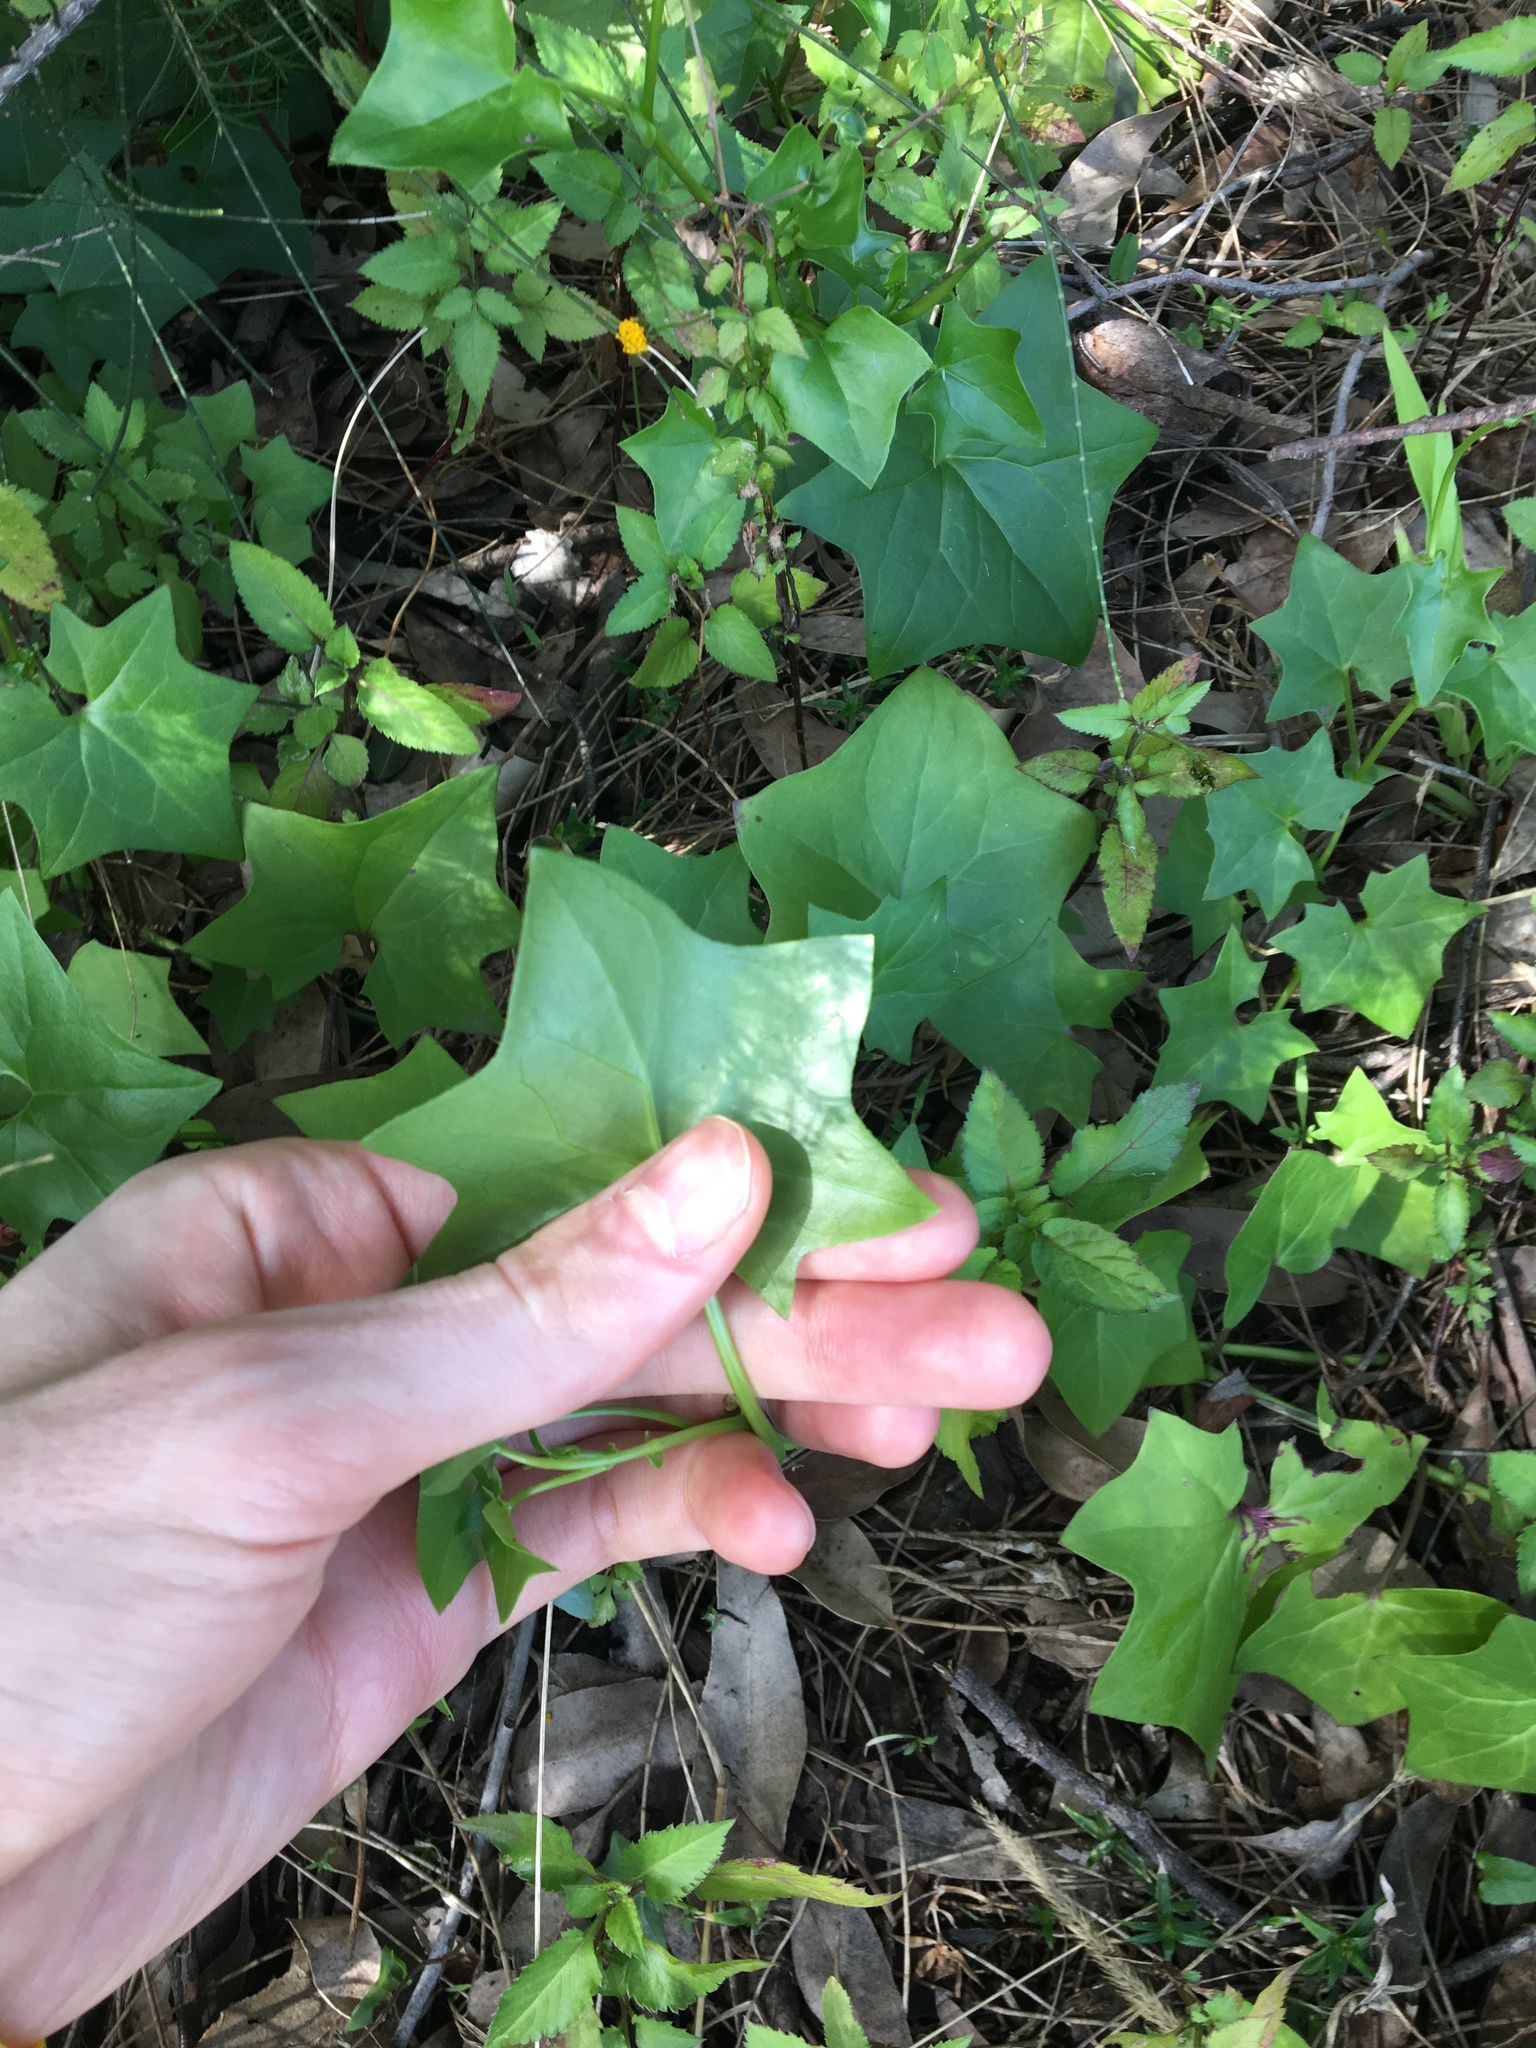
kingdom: Plantae
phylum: Tracheophyta
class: Magnoliopsida
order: Asterales
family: Asteraceae
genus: Delairea
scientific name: Delairea odorata
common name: Cape-ivy
